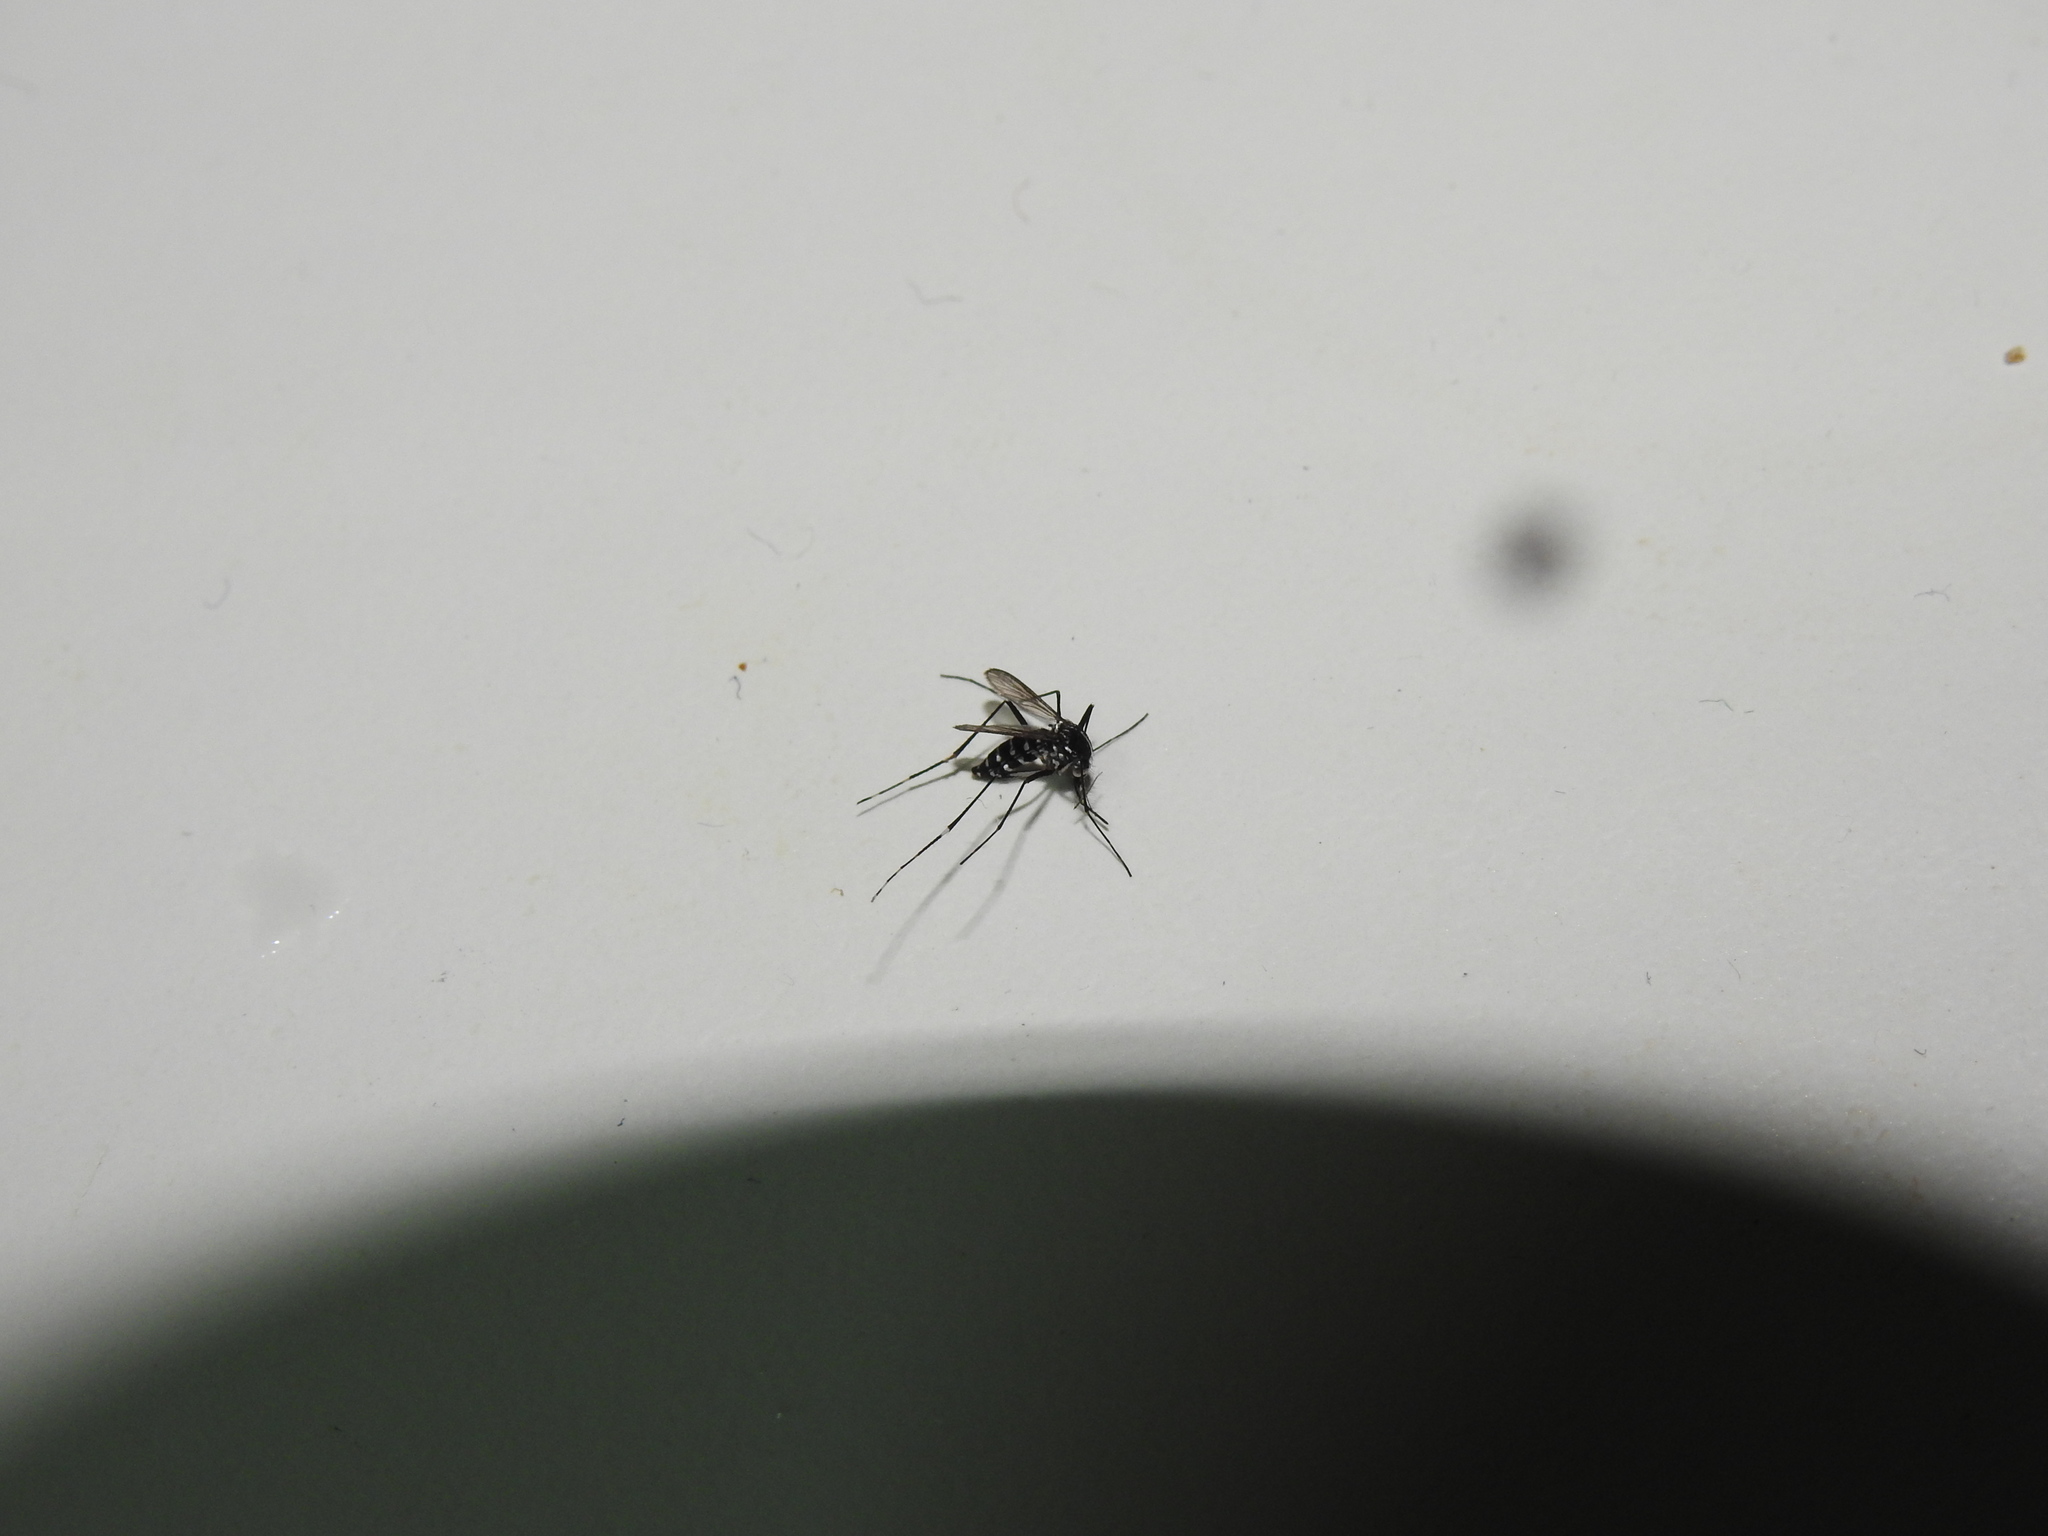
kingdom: Animalia
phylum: Arthropoda
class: Insecta
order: Diptera
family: Culicidae
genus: Aedes
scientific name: Aedes albopictus
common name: Tiger mosquito
